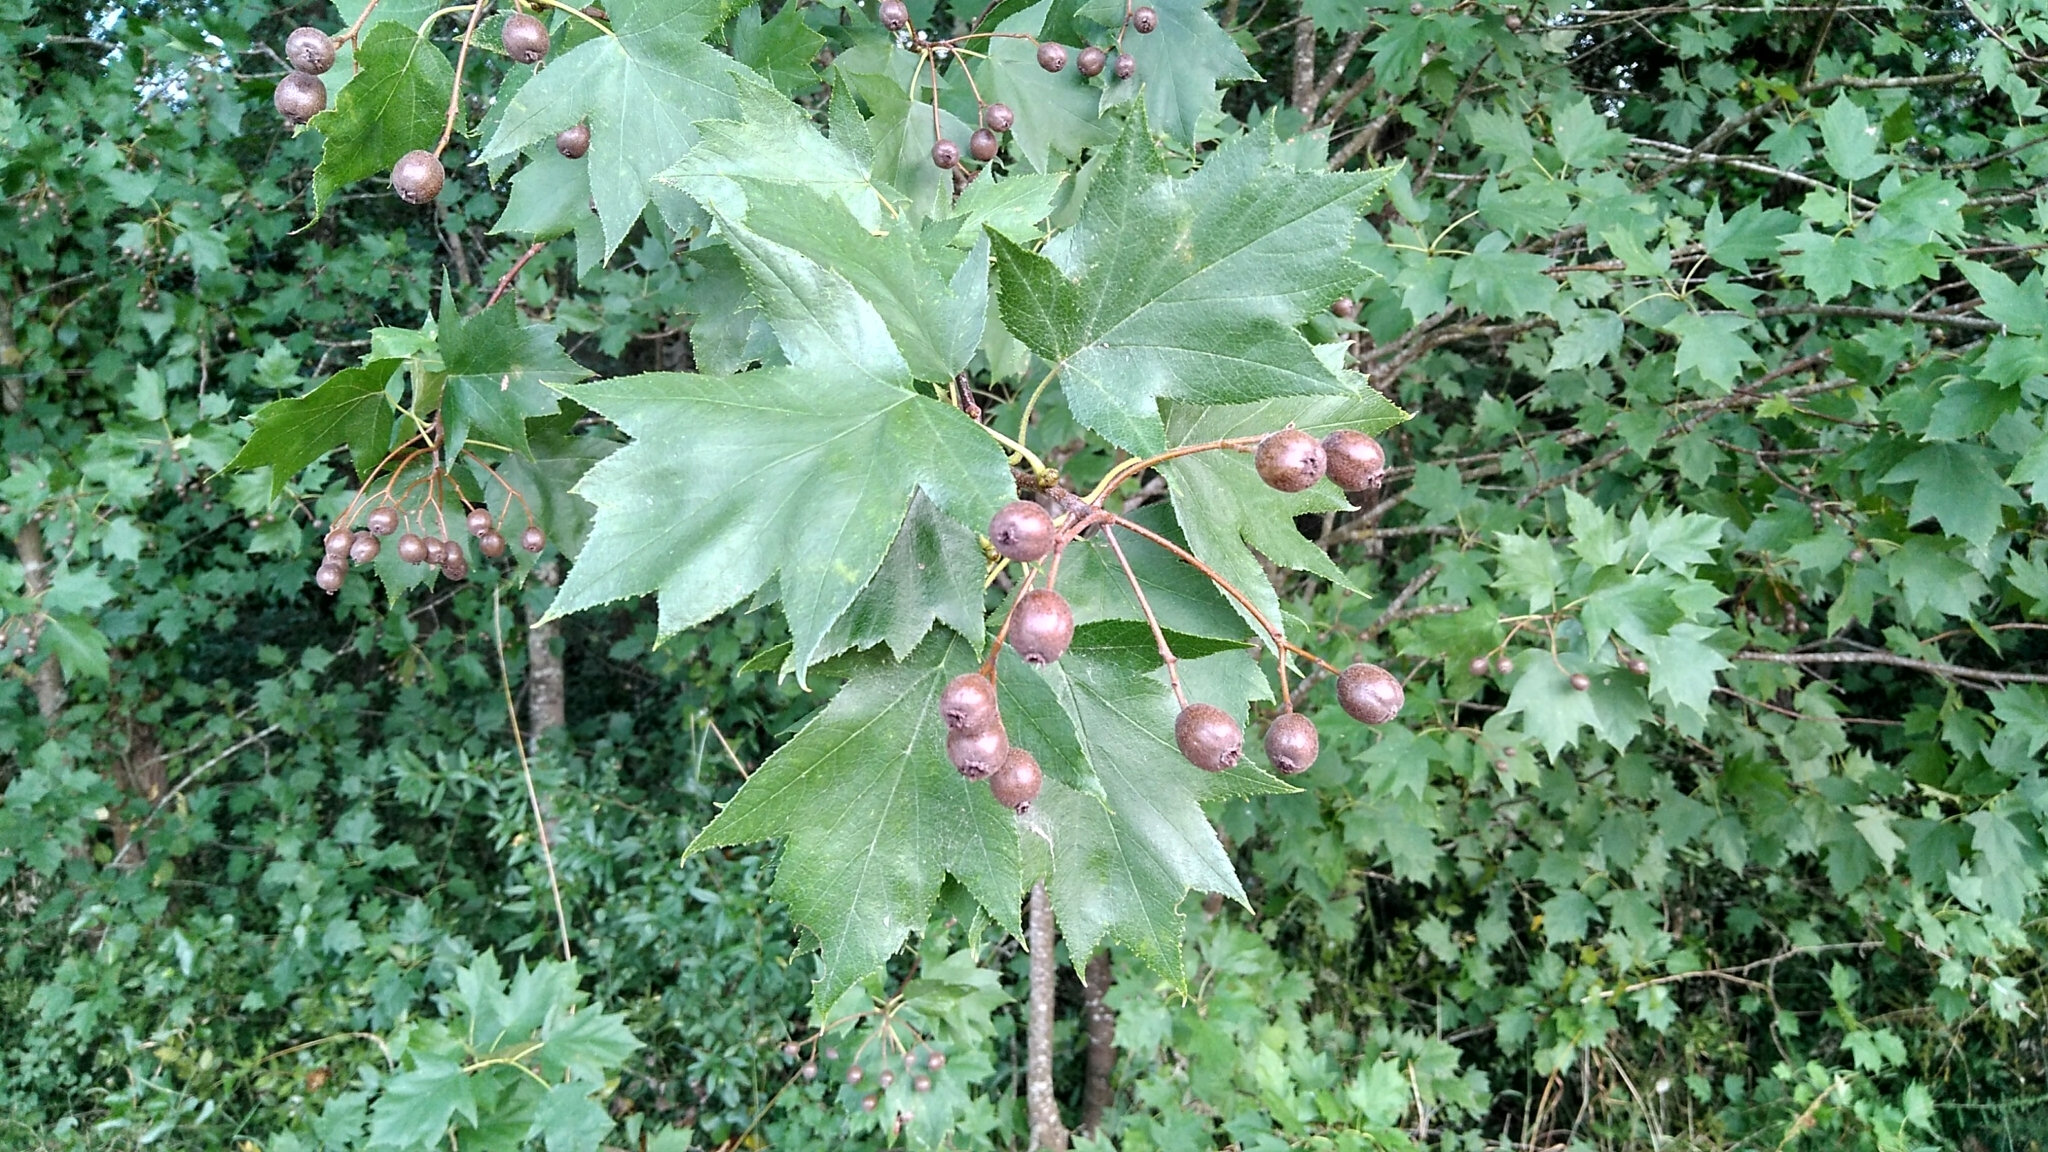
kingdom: Plantae
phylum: Tracheophyta
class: Magnoliopsida
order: Rosales
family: Rosaceae
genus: Torminalis
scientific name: Torminalis glaberrima
